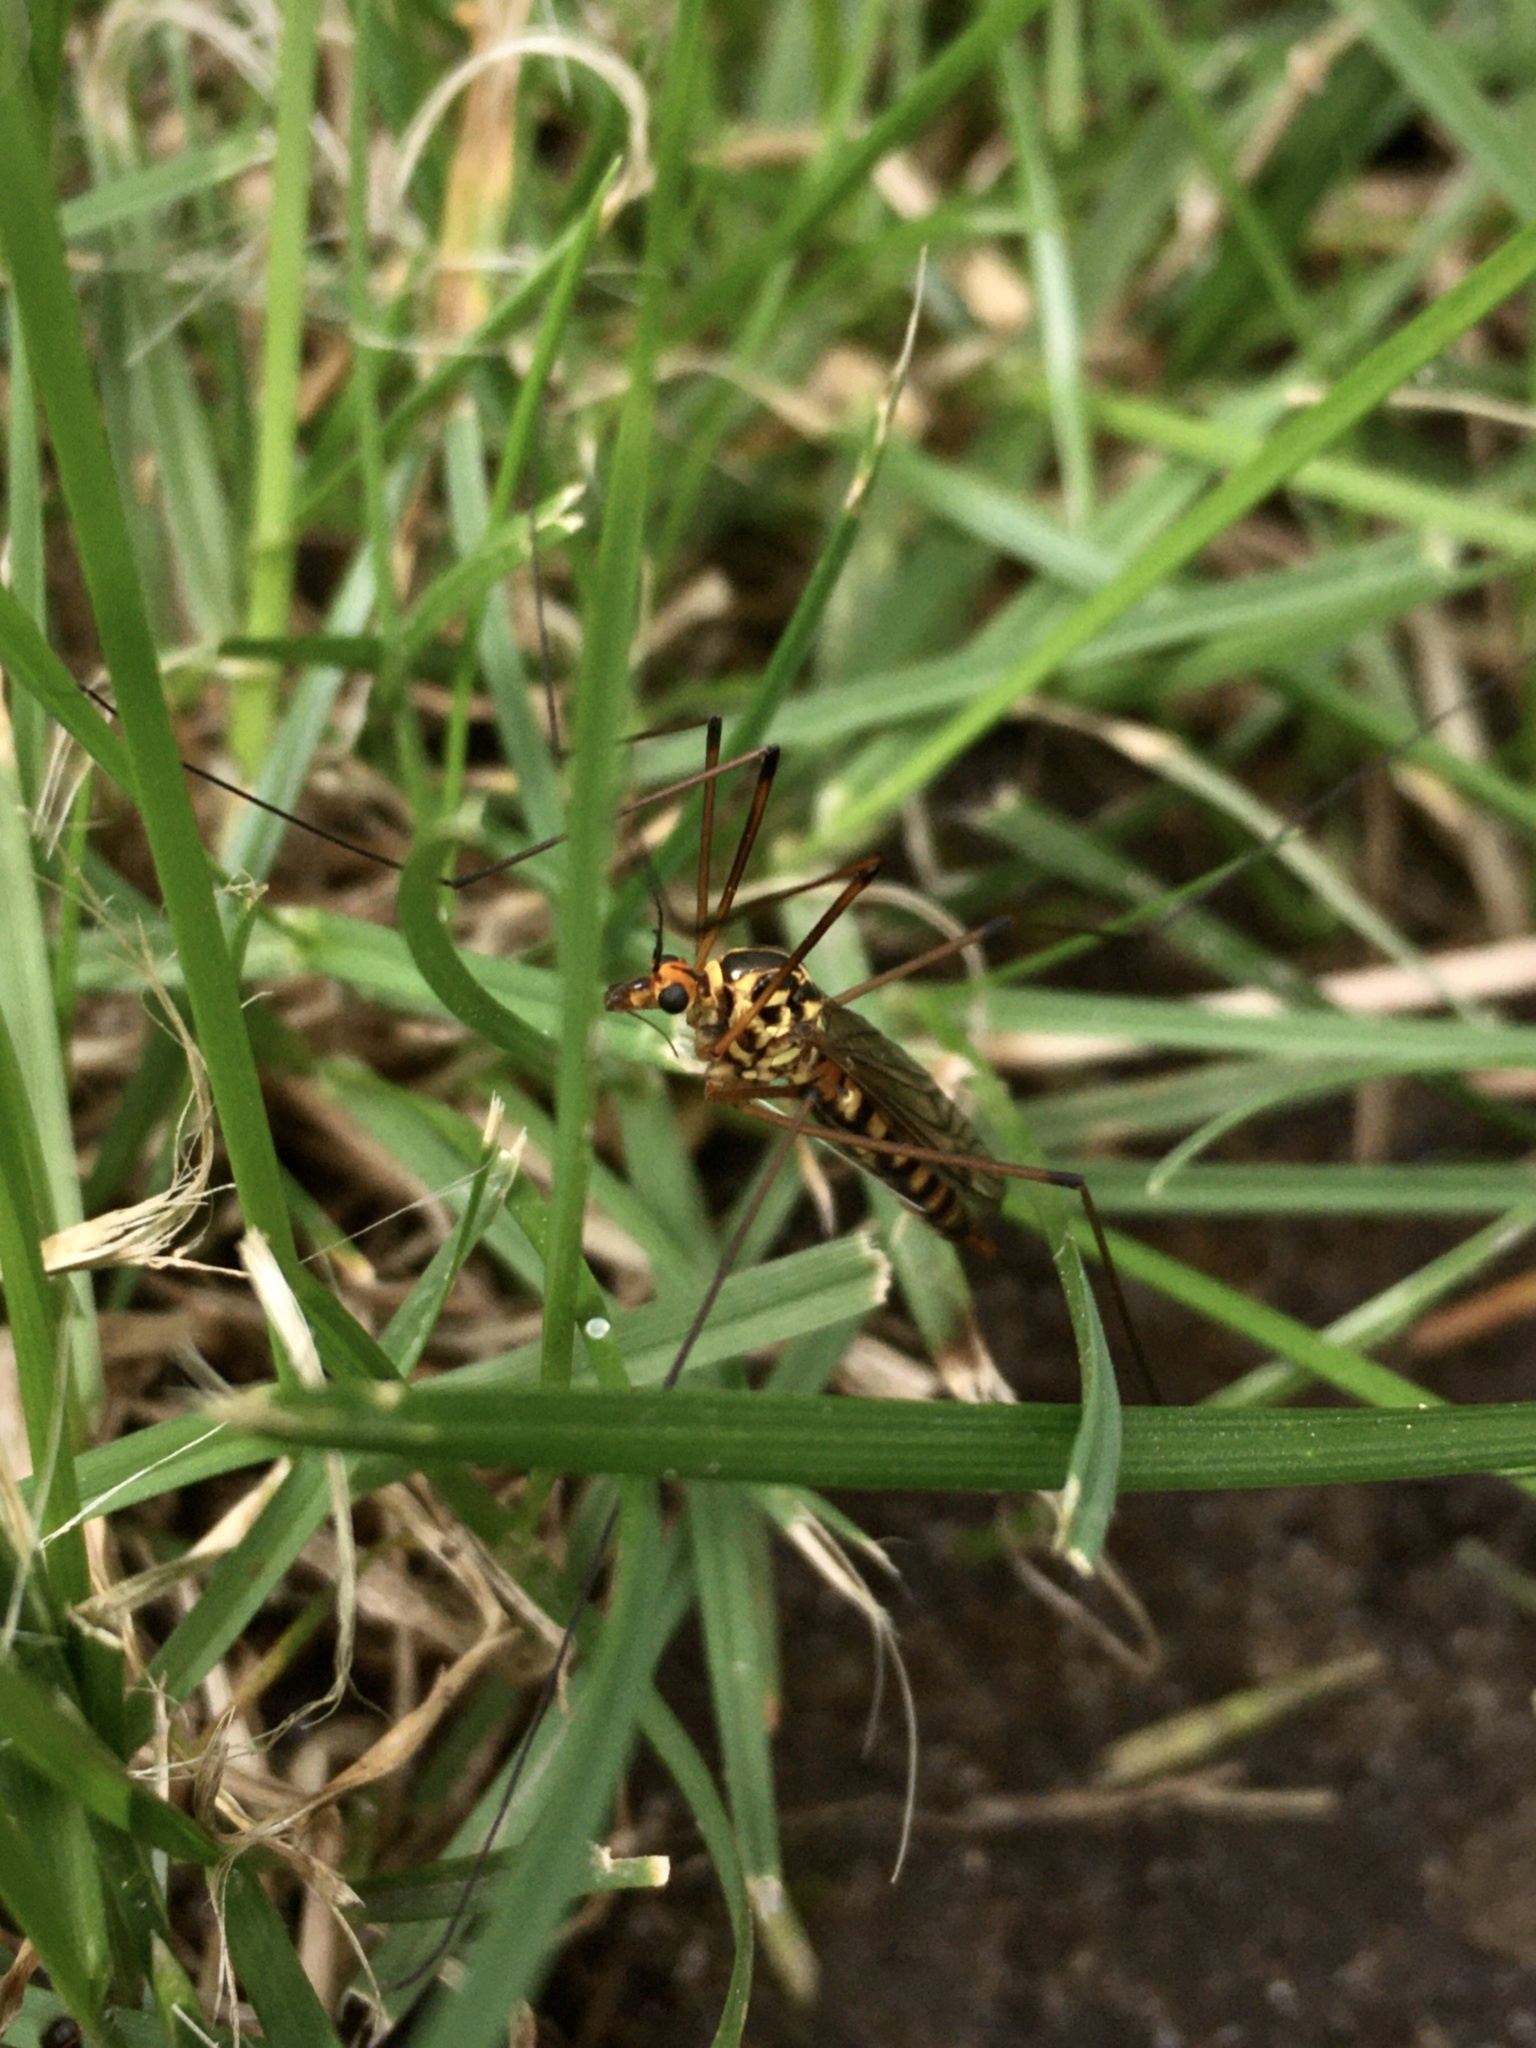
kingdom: Animalia
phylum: Arthropoda
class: Insecta
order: Diptera
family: Tipulidae
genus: Nephrotoma
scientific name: Nephrotoma
